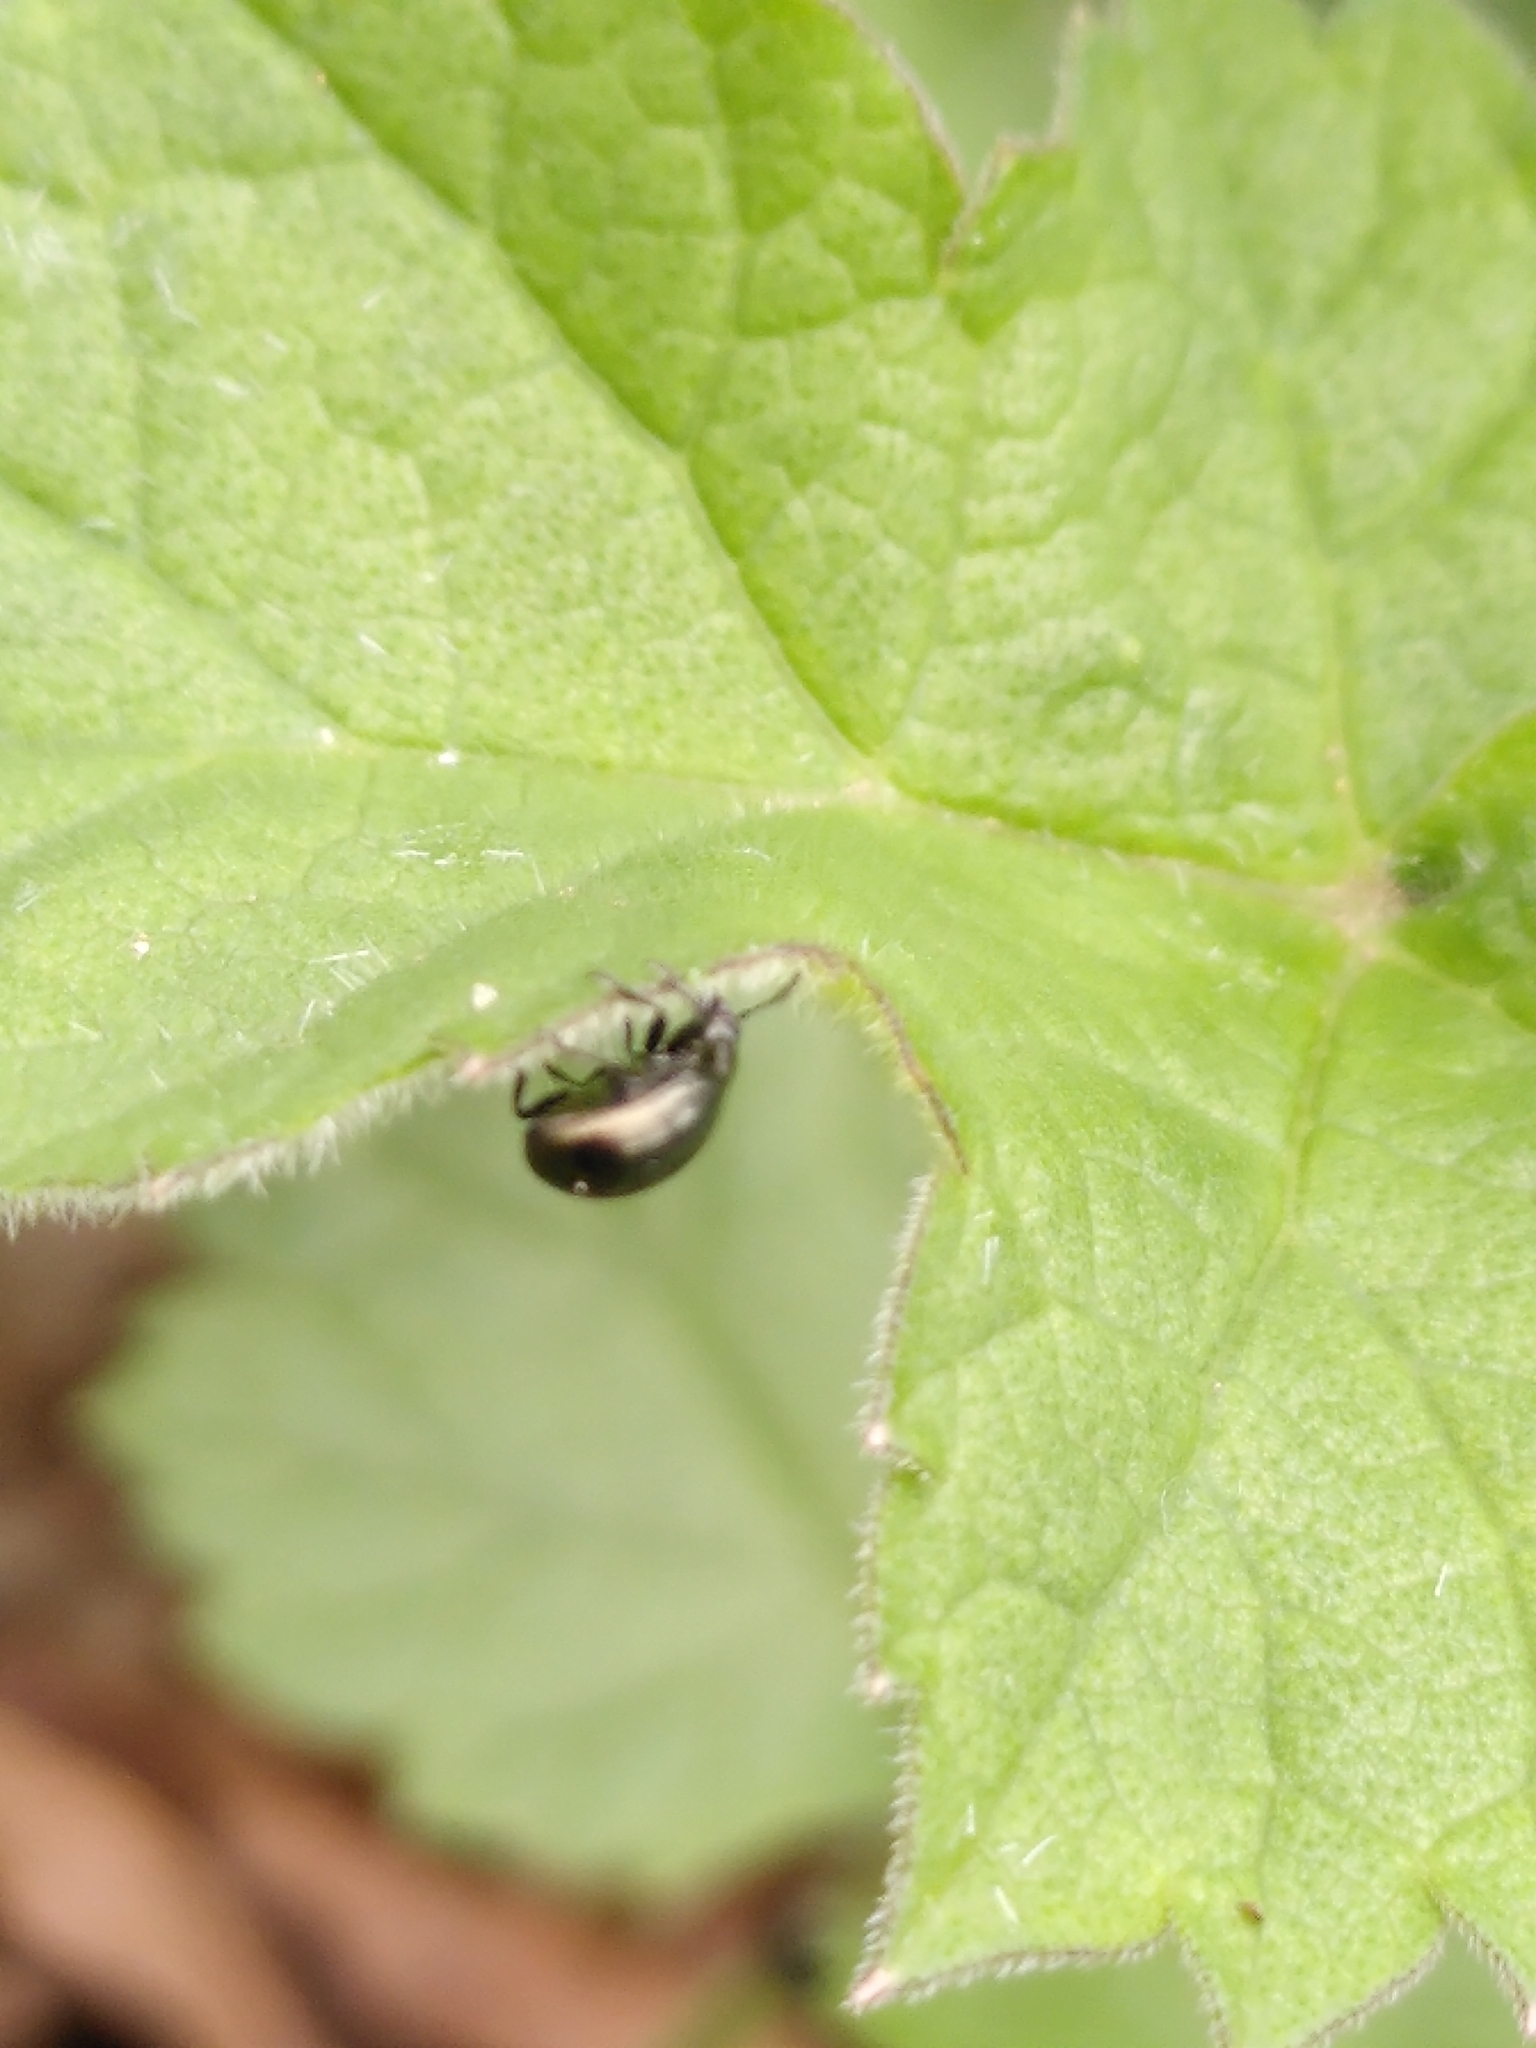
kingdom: Animalia
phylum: Arthropoda
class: Insecta
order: Coleoptera
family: Chrysomelidae
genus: Phaedon
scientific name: Phaedon tumidulus
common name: Celery leaf beetle
